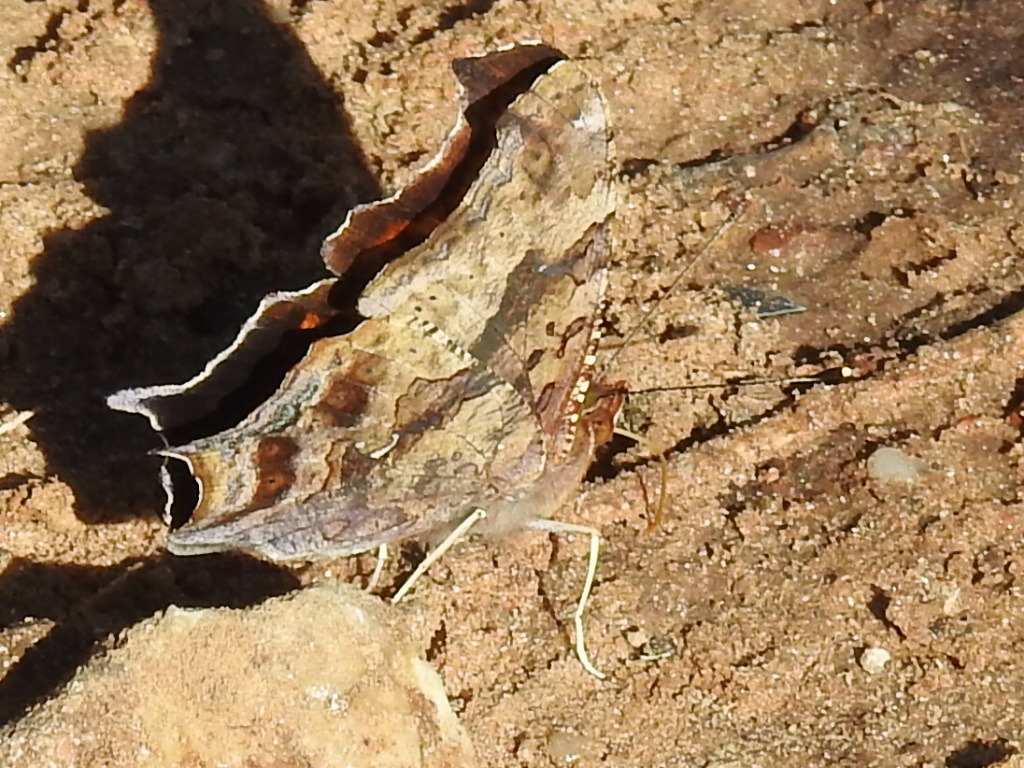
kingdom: Animalia
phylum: Arthropoda
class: Insecta
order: Lepidoptera
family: Nymphalidae
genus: Polygonia
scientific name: Polygonia interrogationis
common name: Question mark
